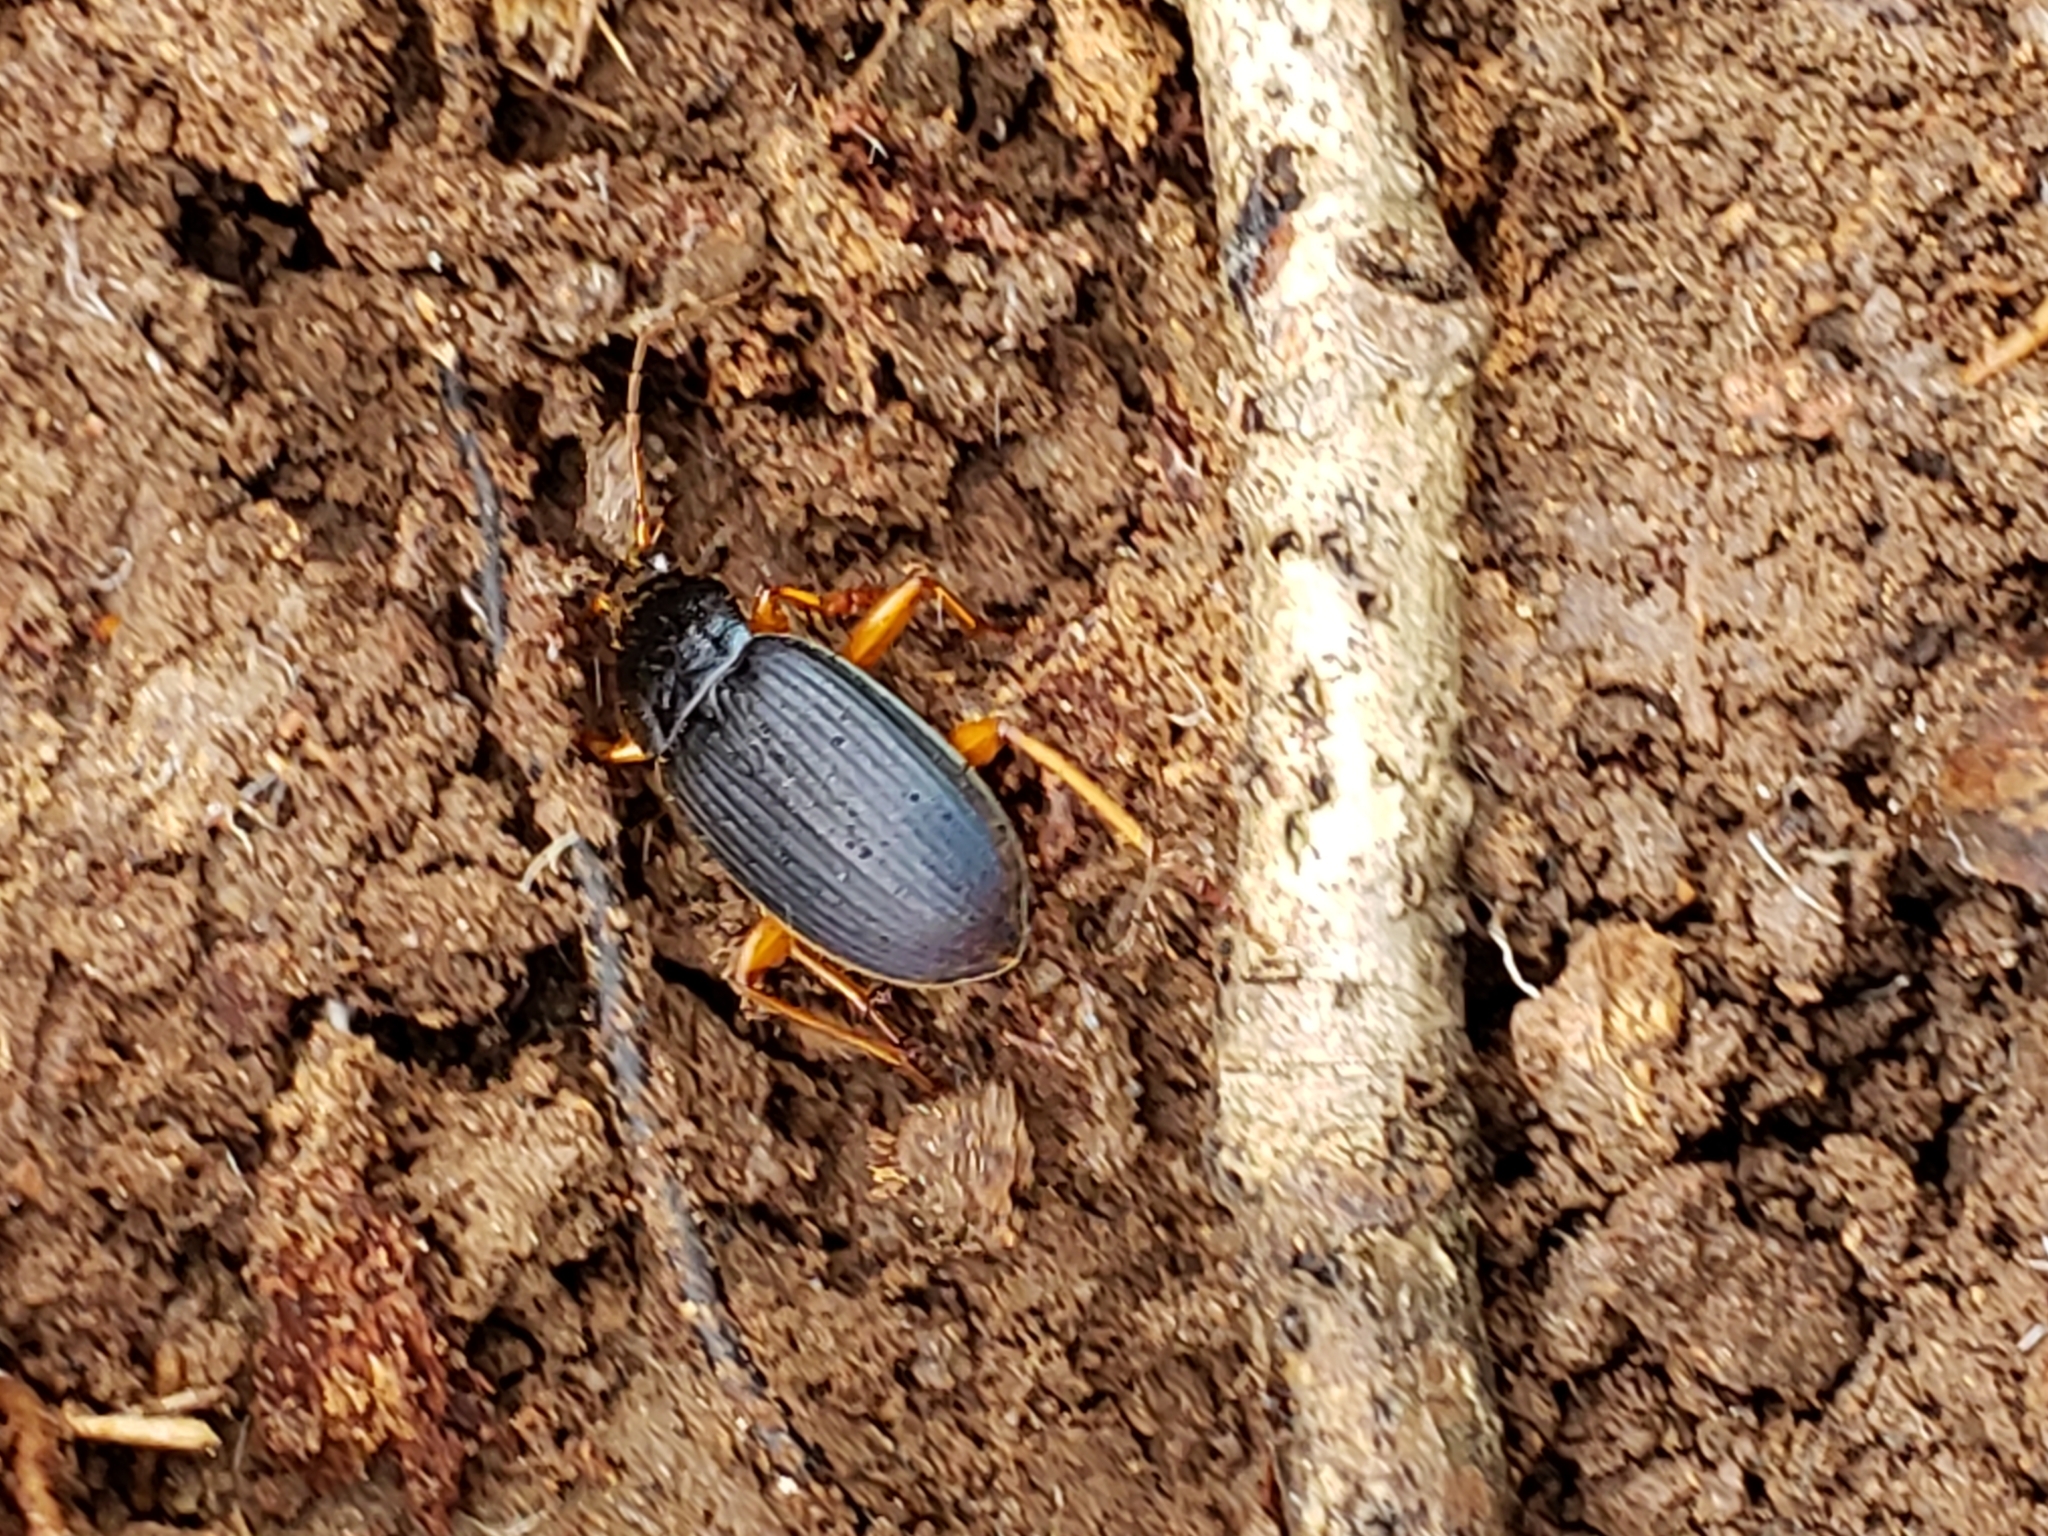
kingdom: Animalia
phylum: Arthropoda
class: Insecta
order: Coleoptera
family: Carabidae
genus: Chlaenius
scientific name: Chlaenius laticollis
